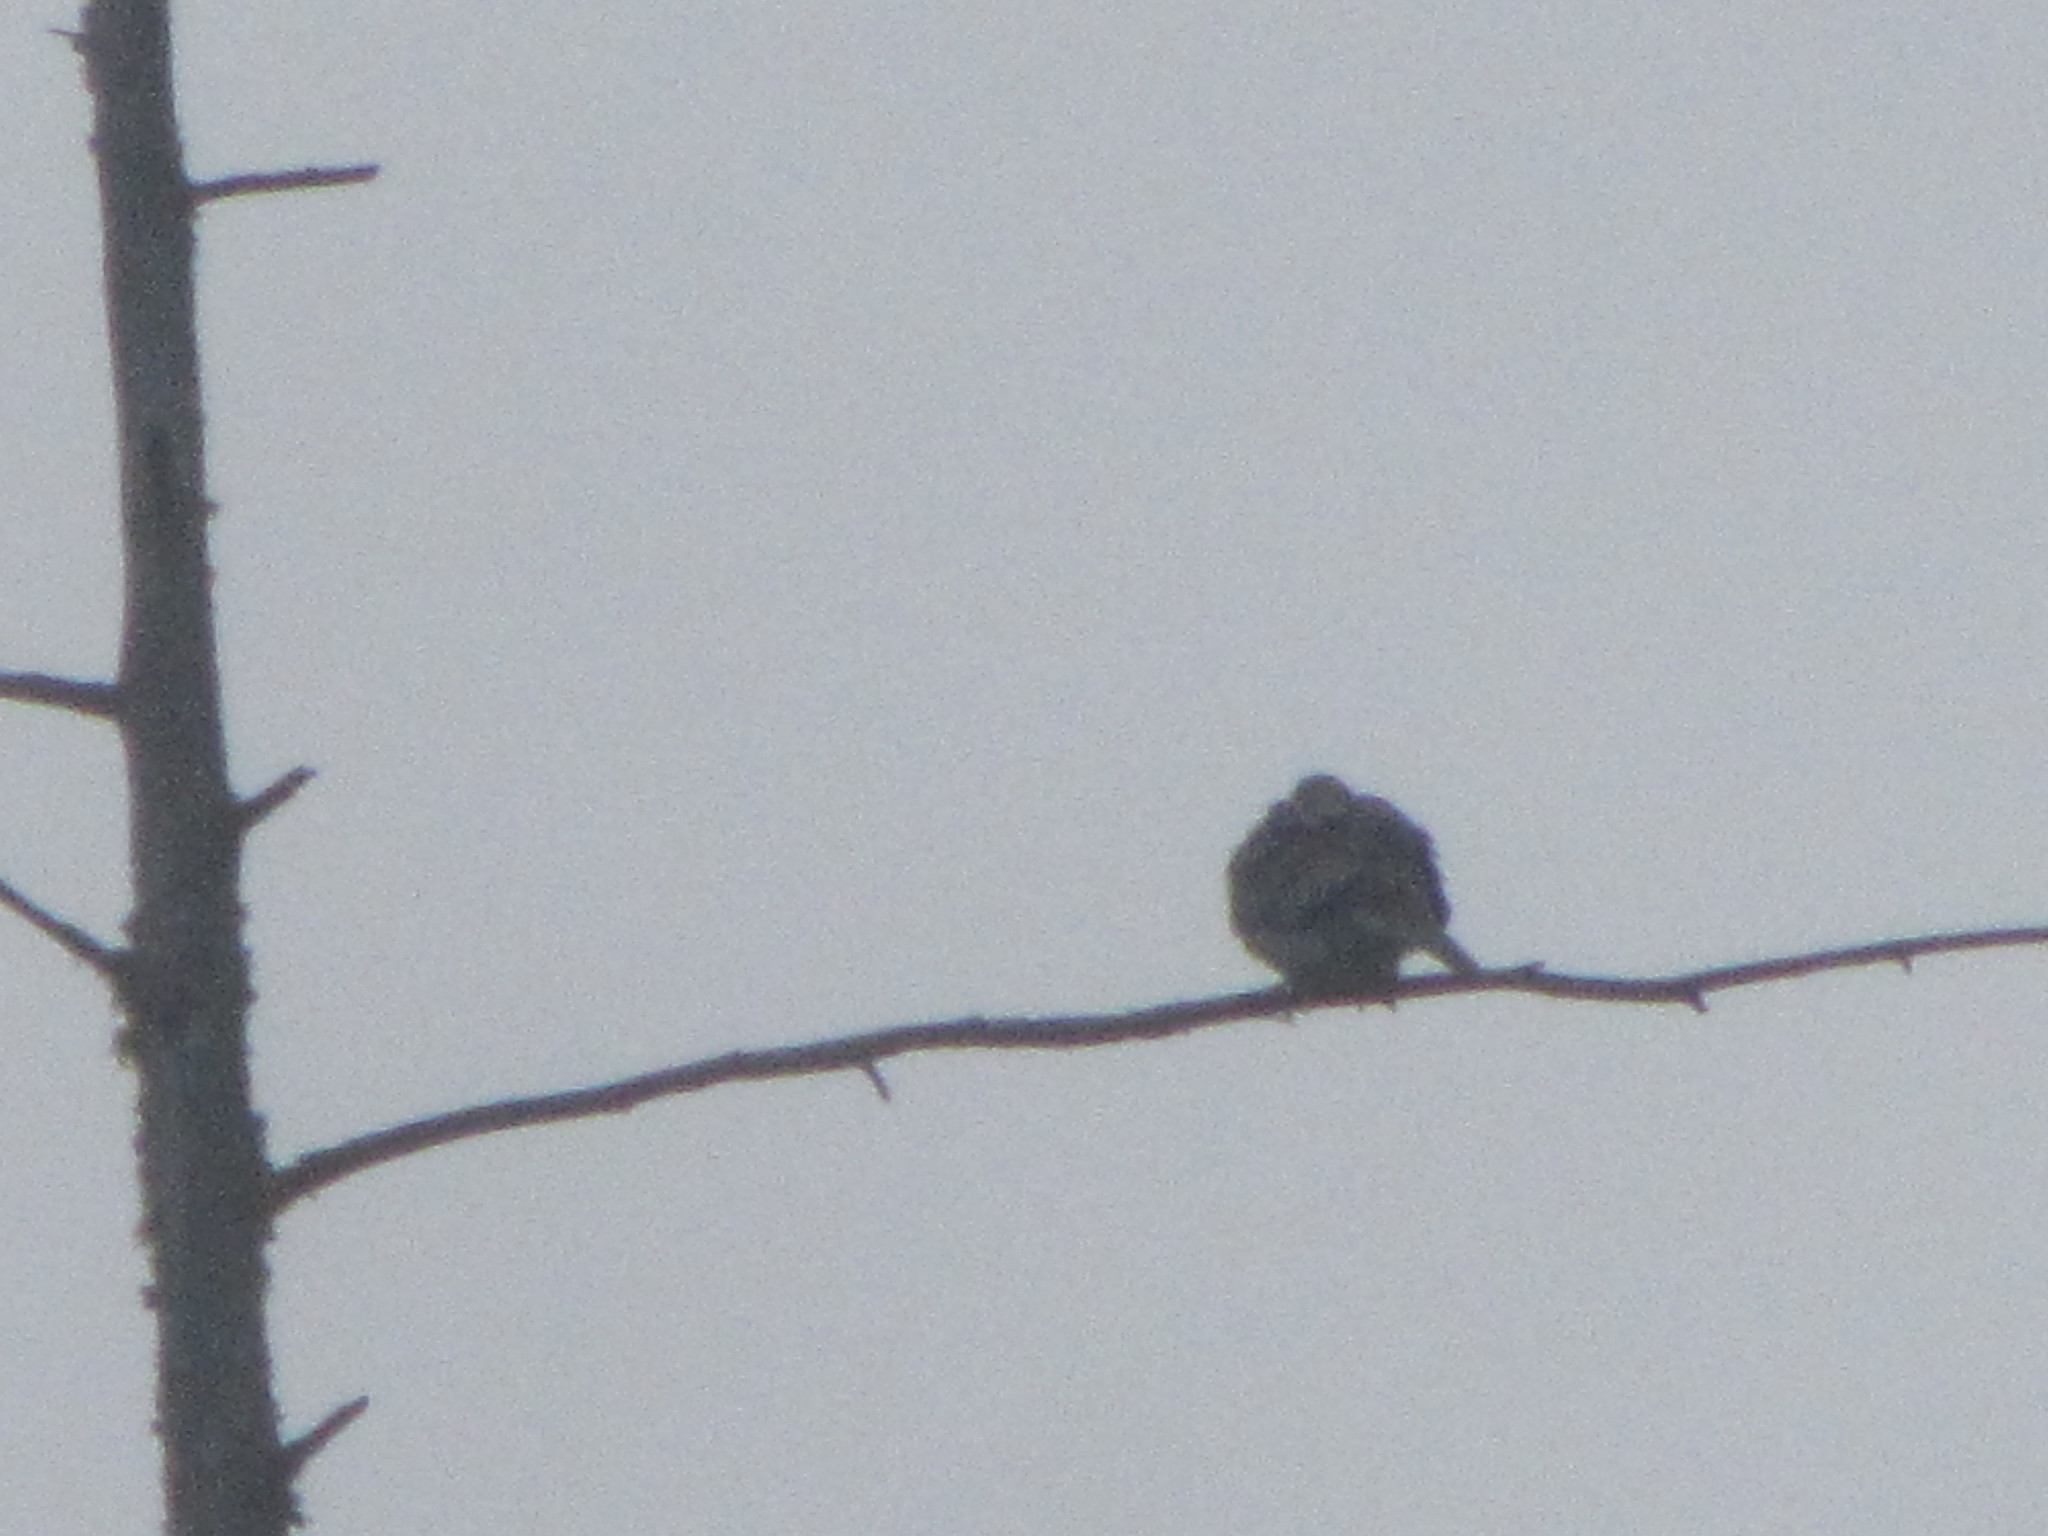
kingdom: Animalia
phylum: Chordata
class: Aves
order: Columbiformes
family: Columbidae
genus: Zenaida
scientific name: Zenaida macroura
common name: Mourning dove
